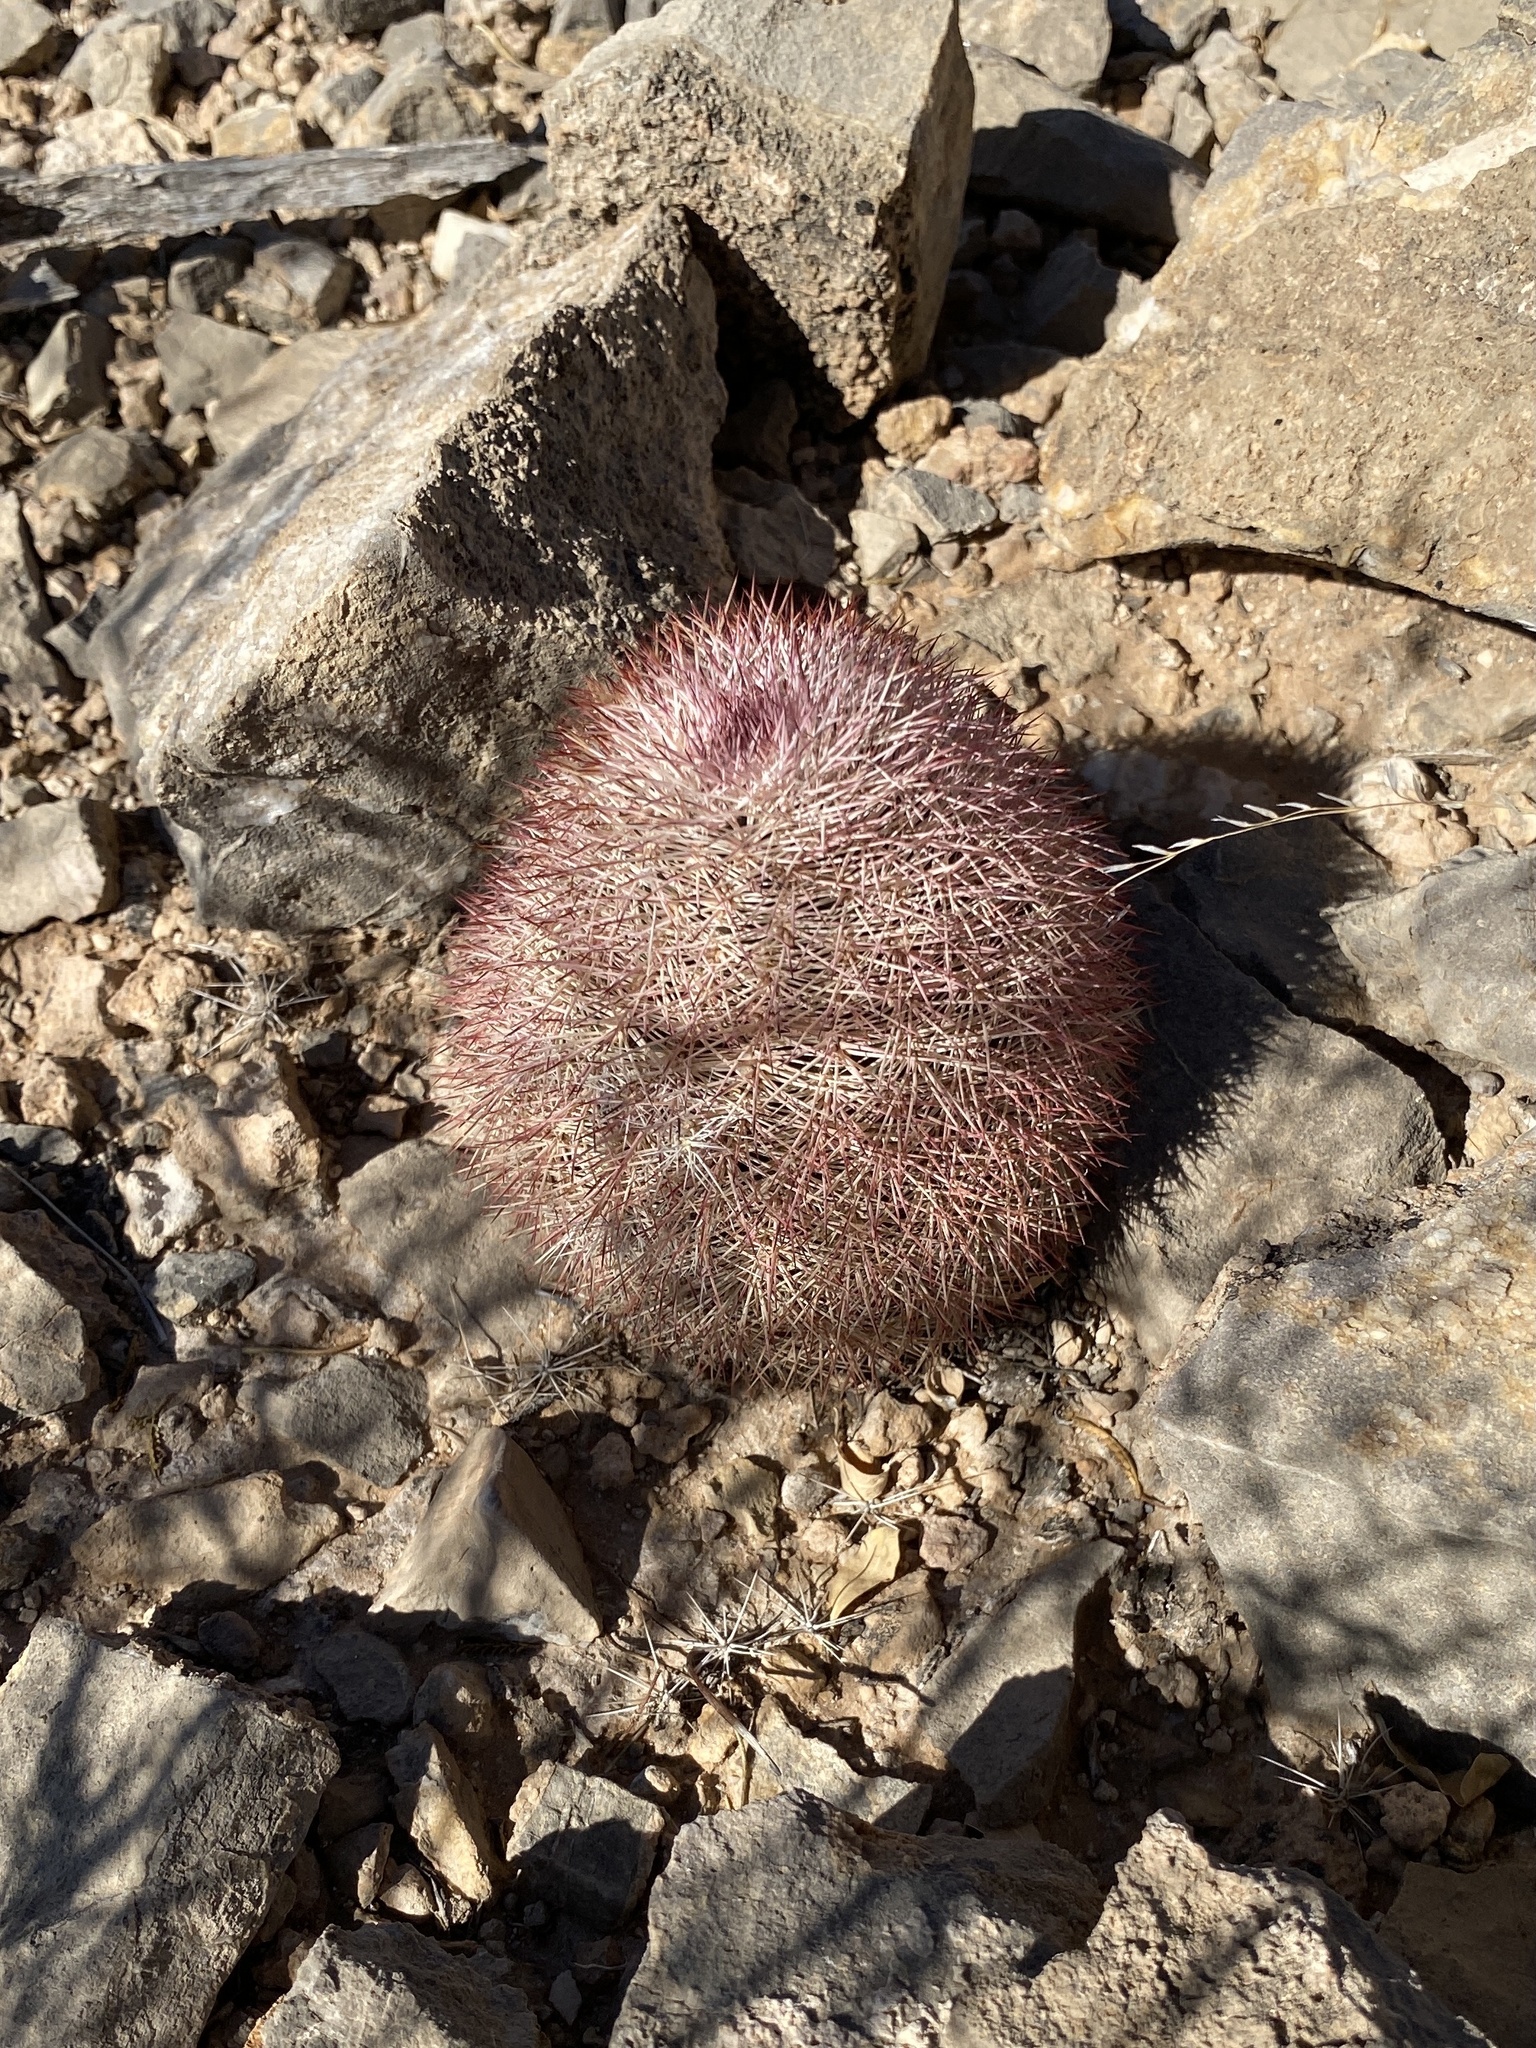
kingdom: Plantae
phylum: Tracheophyta
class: Magnoliopsida
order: Caryophyllales
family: Cactaceae
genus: Echinocereus
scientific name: Echinocereus dasyacanthus
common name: Spiny hedgehog cactus
